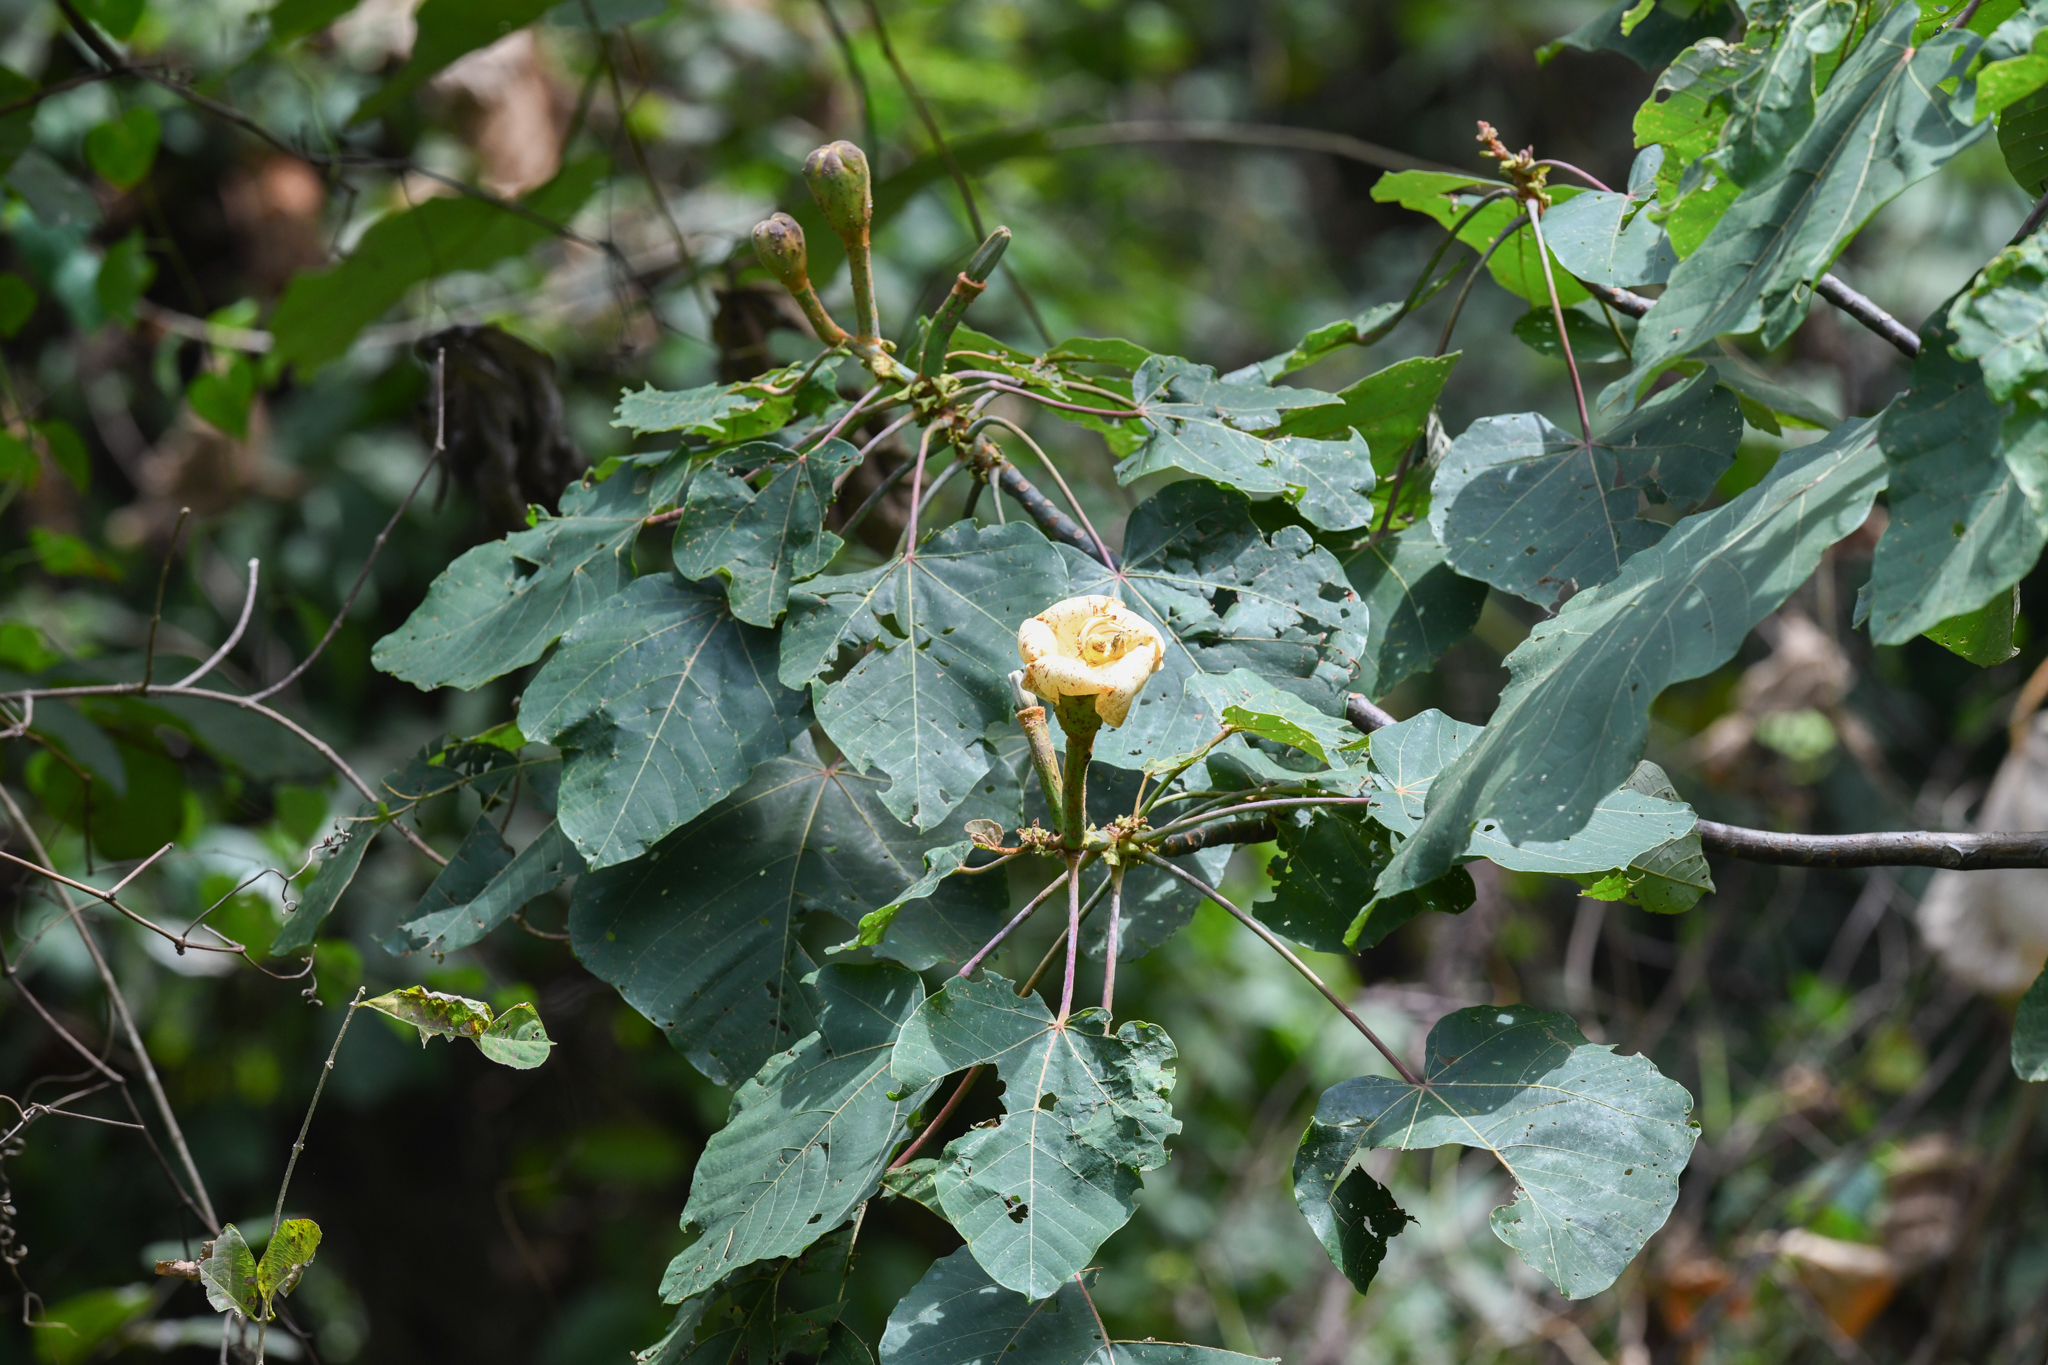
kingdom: Plantae
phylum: Tracheophyta
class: Magnoliopsida
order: Malvales
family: Malvaceae
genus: Ochroma
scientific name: Ochroma pyramidale
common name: Balsa
